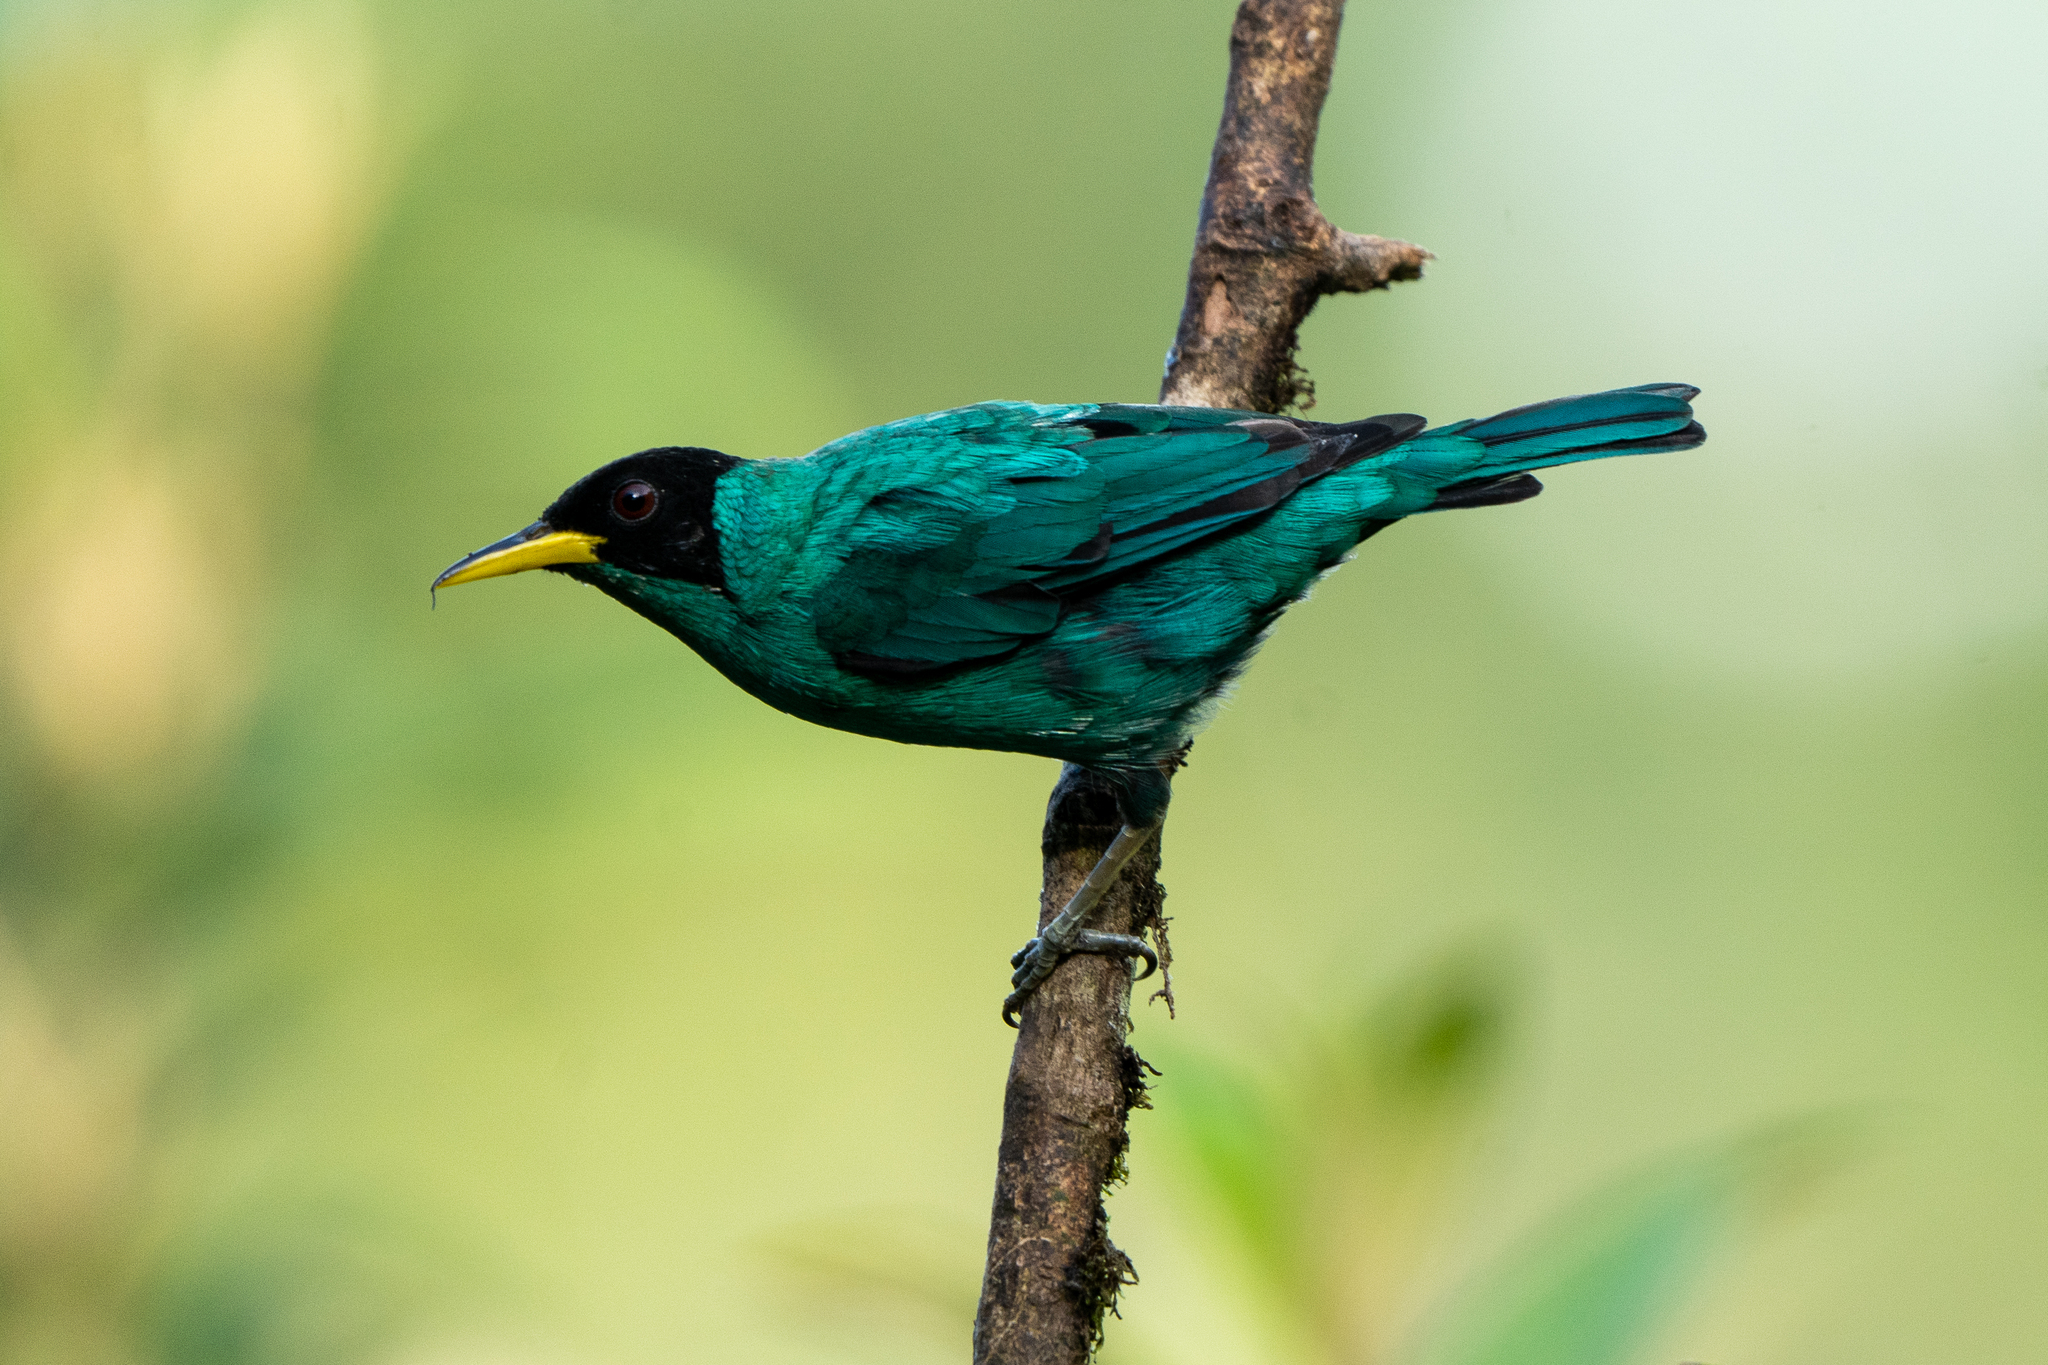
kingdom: Animalia
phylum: Chordata
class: Aves
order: Passeriformes
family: Thraupidae
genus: Chlorophanes
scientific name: Chlorophanes spiza
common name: Green honeycreeper
